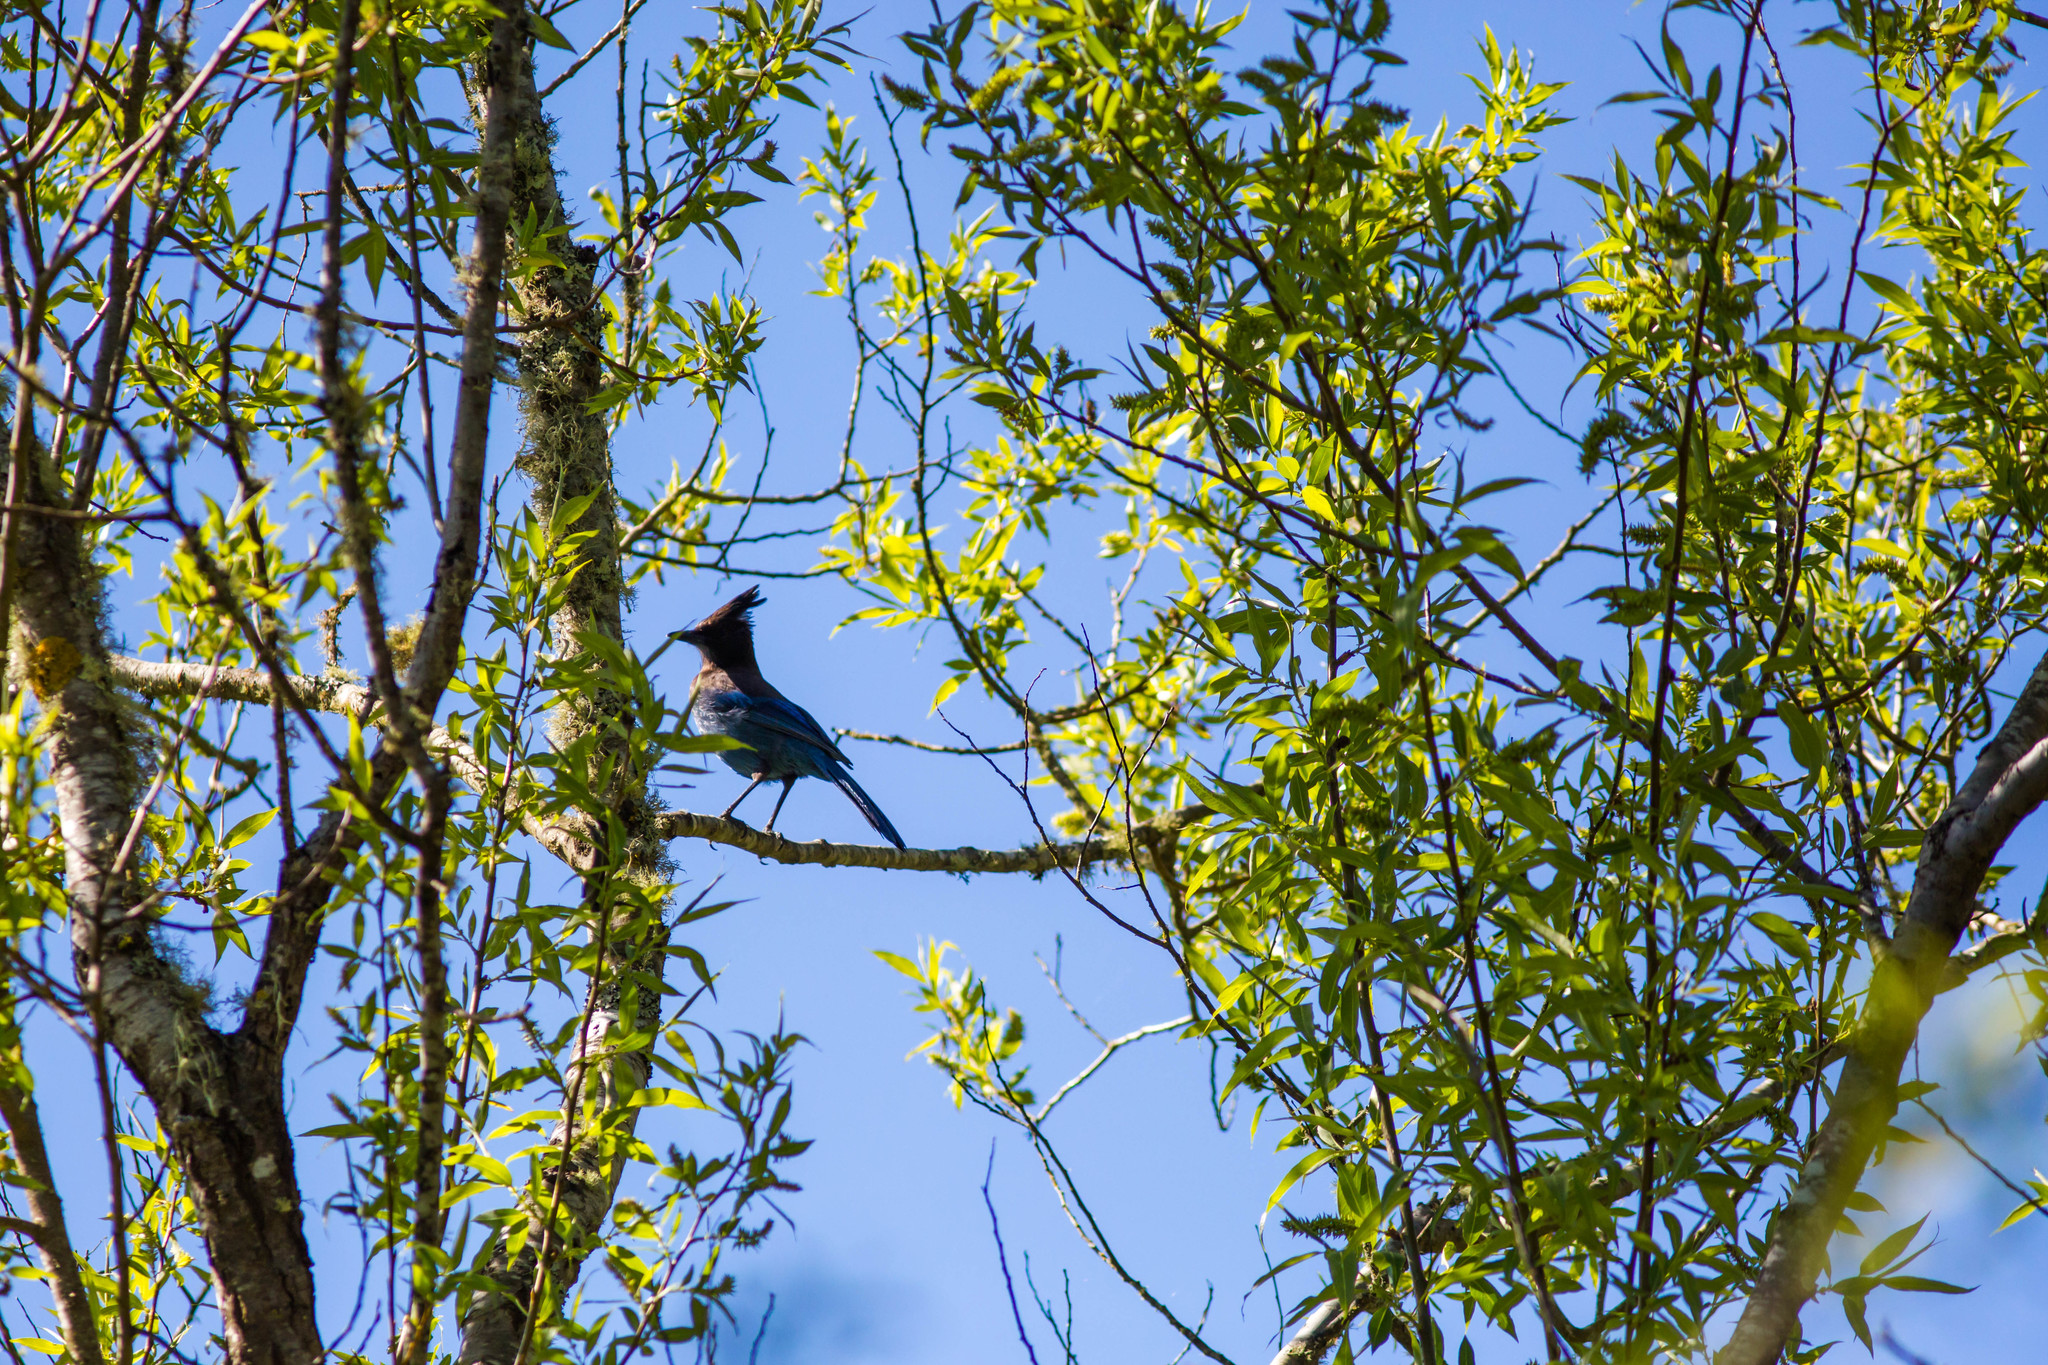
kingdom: Animalia
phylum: Chordata
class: Aves
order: Passeriformes
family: Corvidae
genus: Cyanocitta
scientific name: Cyanocitta stelleri
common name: Steller's jay
